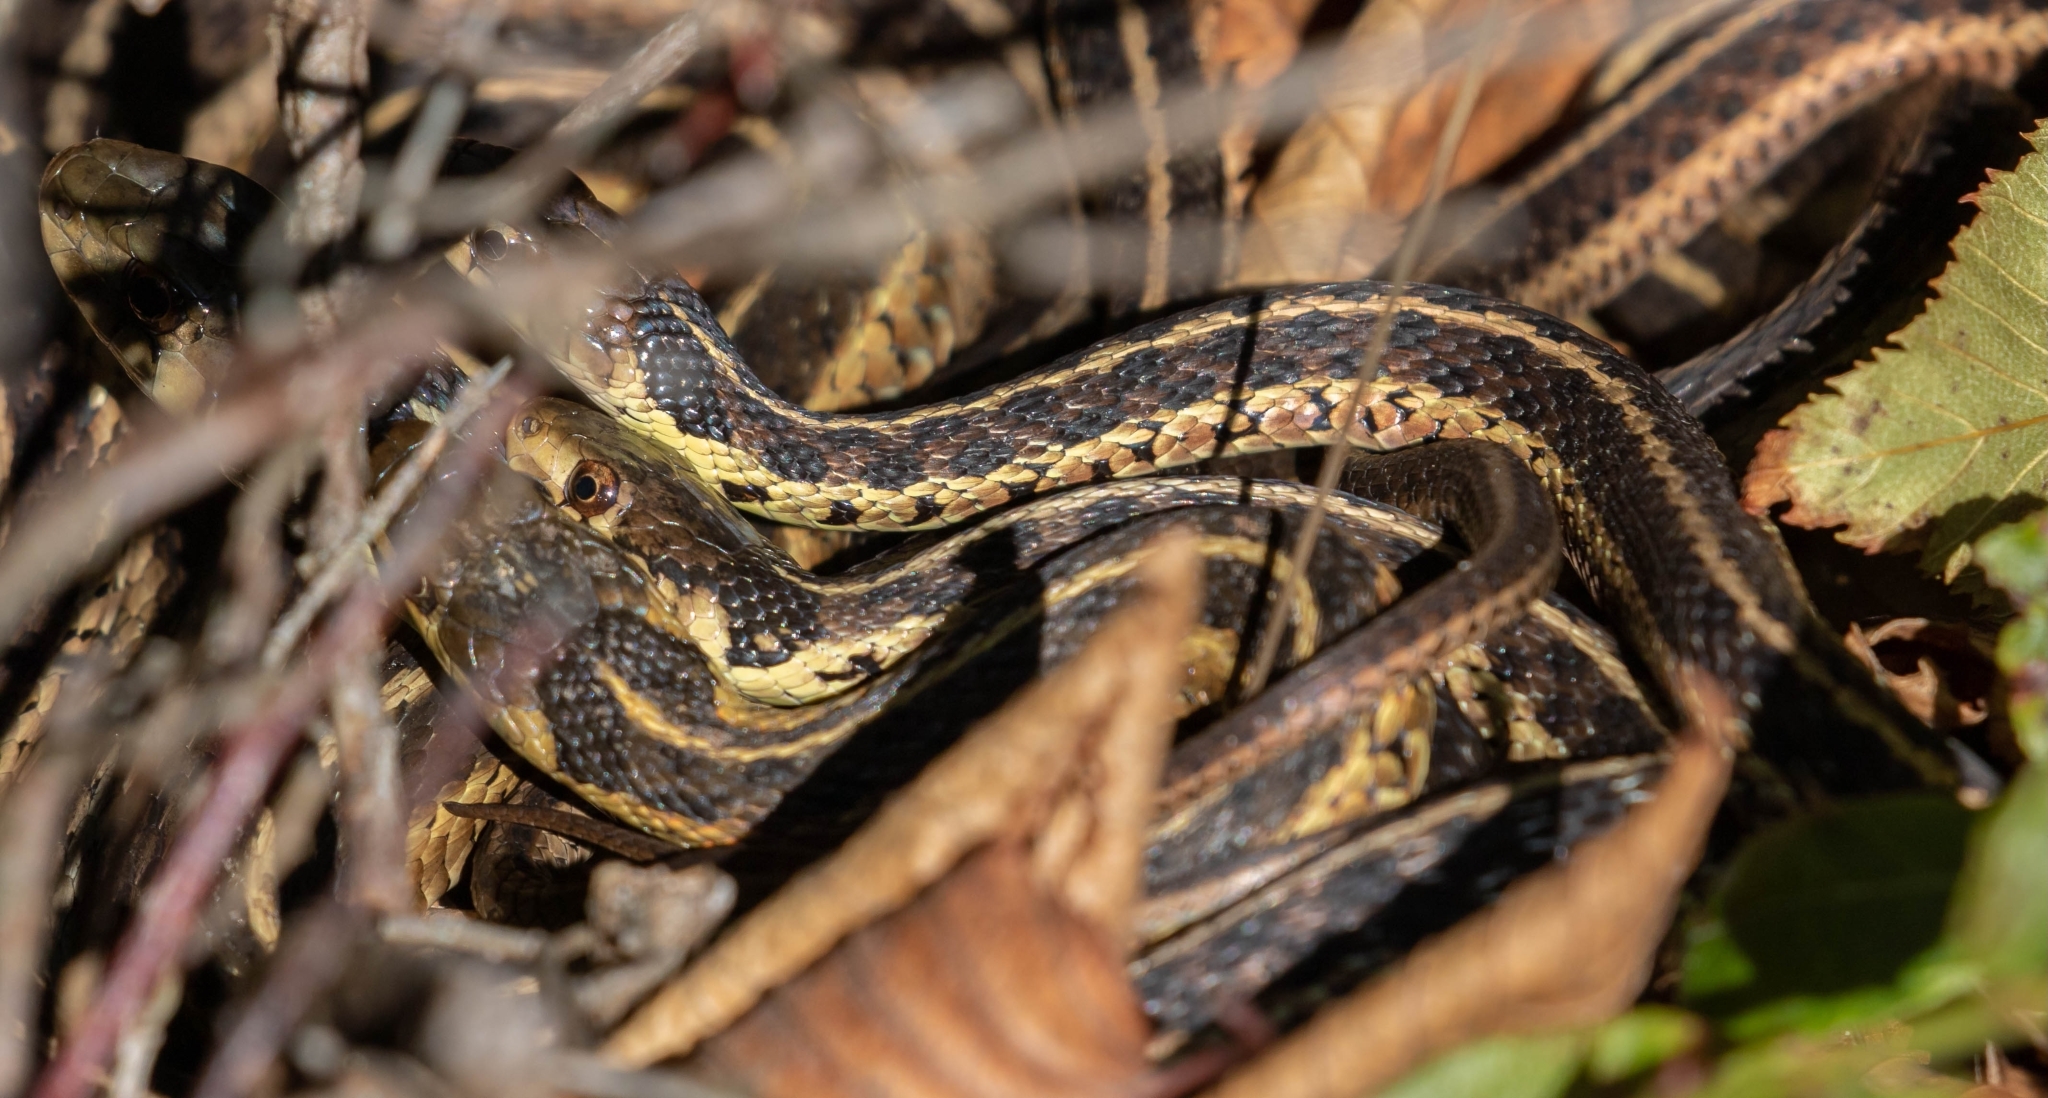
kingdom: Animalia
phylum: Chordata
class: Squamata
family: Colubridae
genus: Thamnophis
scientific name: Thamnophis sirtalis
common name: Common garter snake
